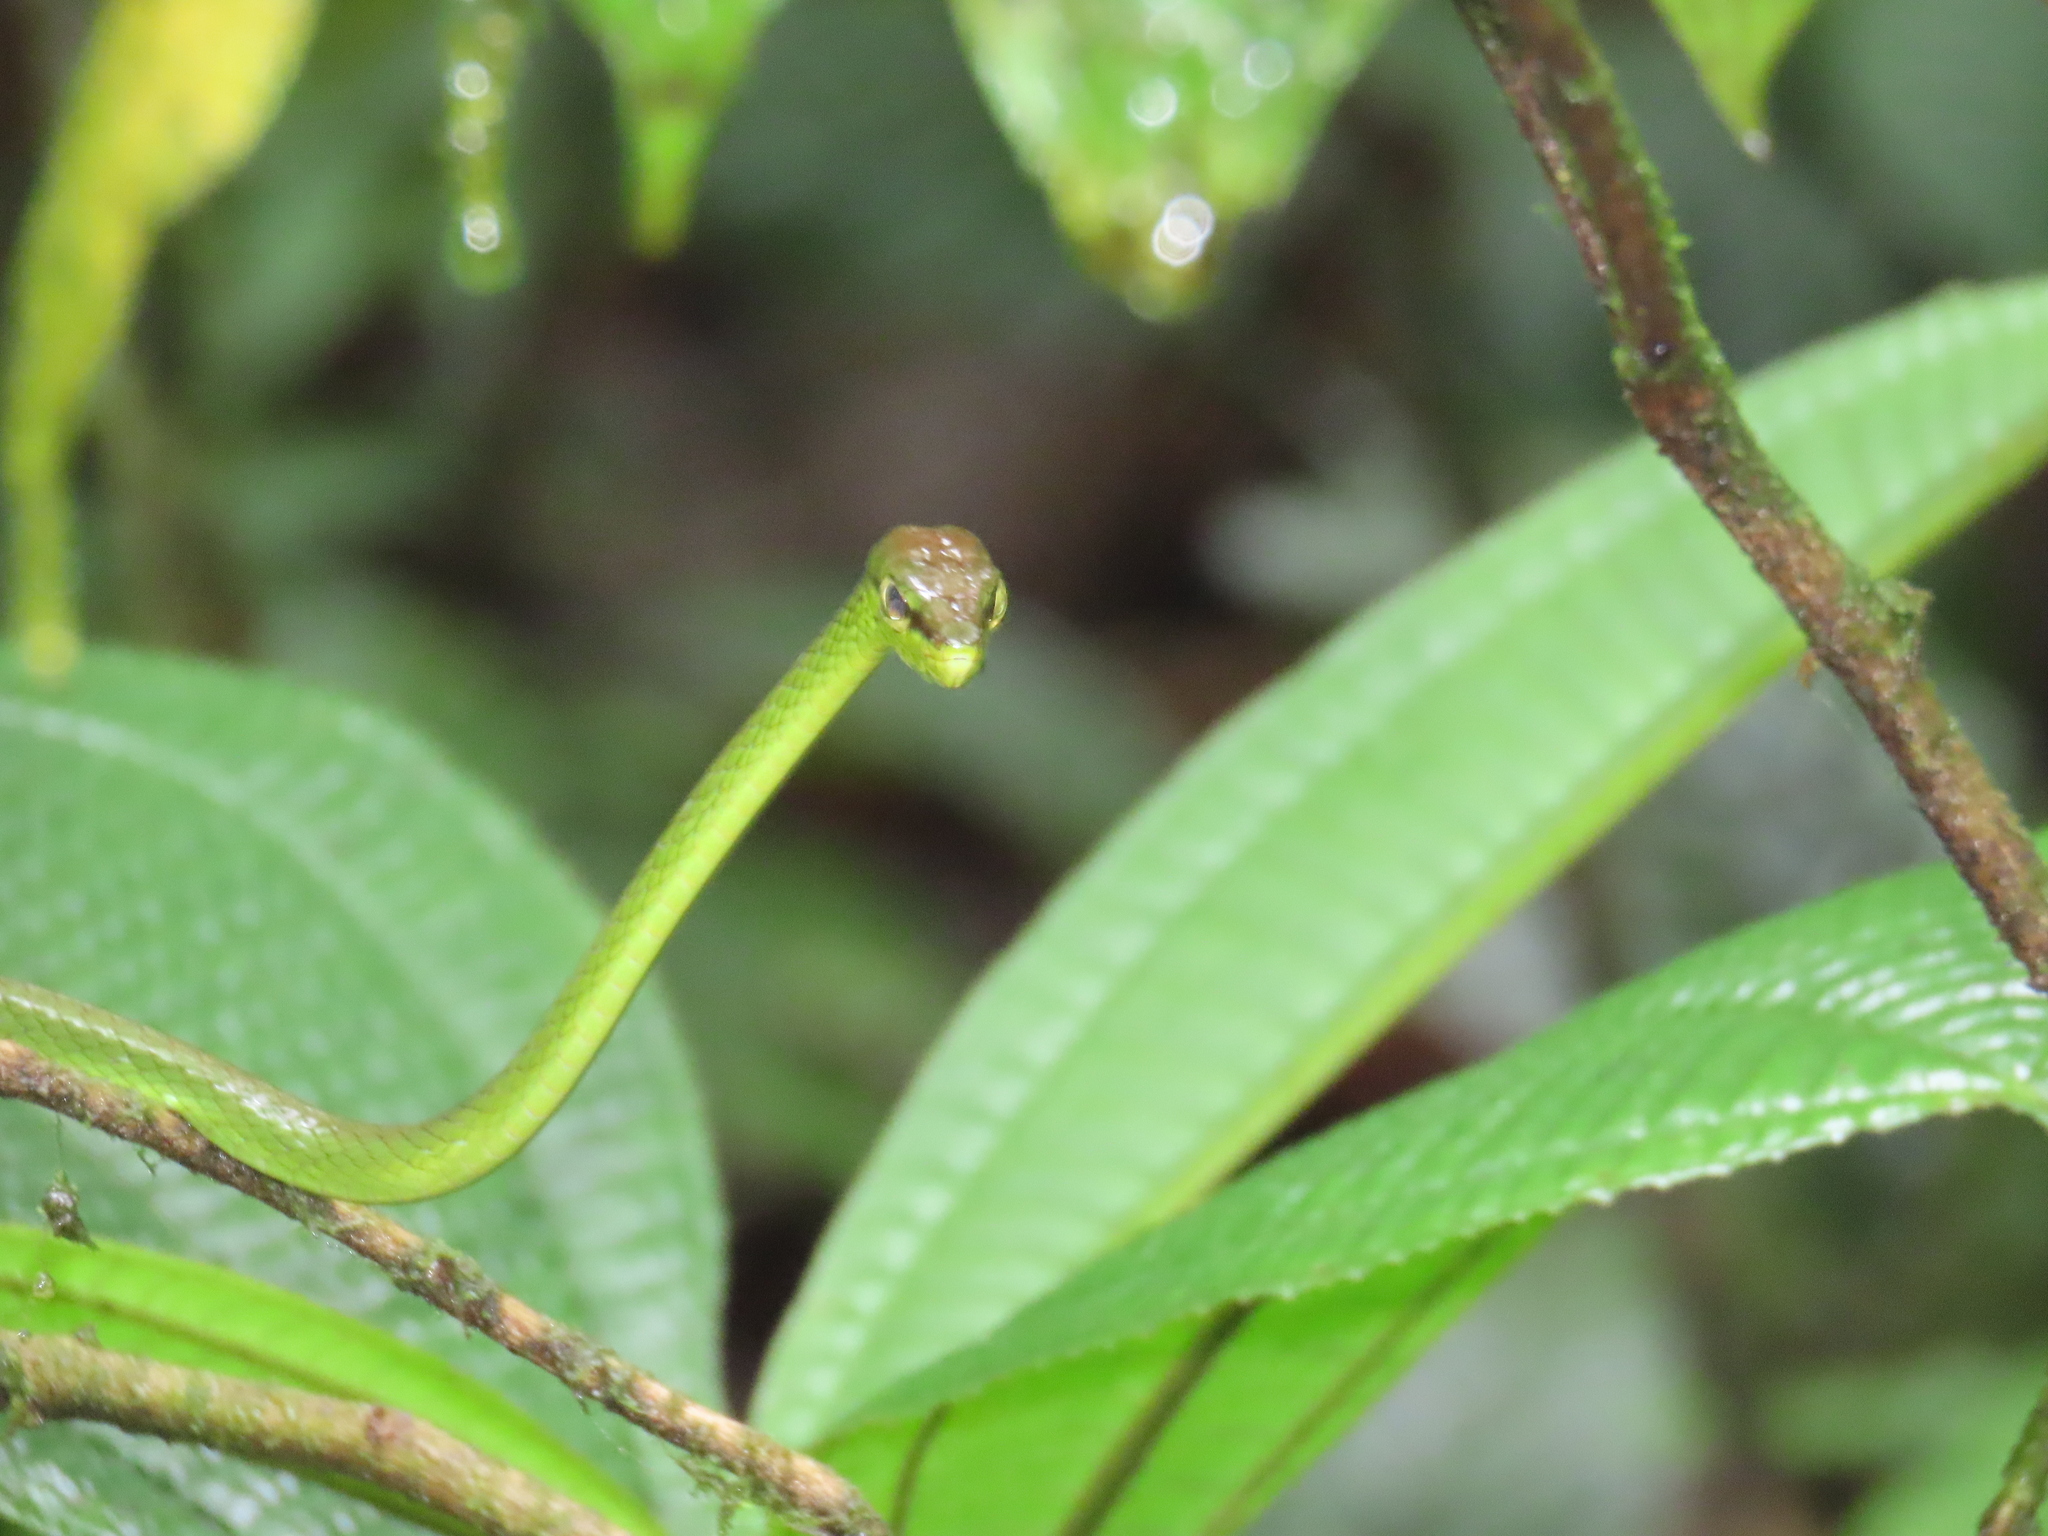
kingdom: Animalia
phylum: Chordata
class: Squamata
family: Colubridae
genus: Oxybelis
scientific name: Oxybelis brevirostris
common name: Cope's vine snake
